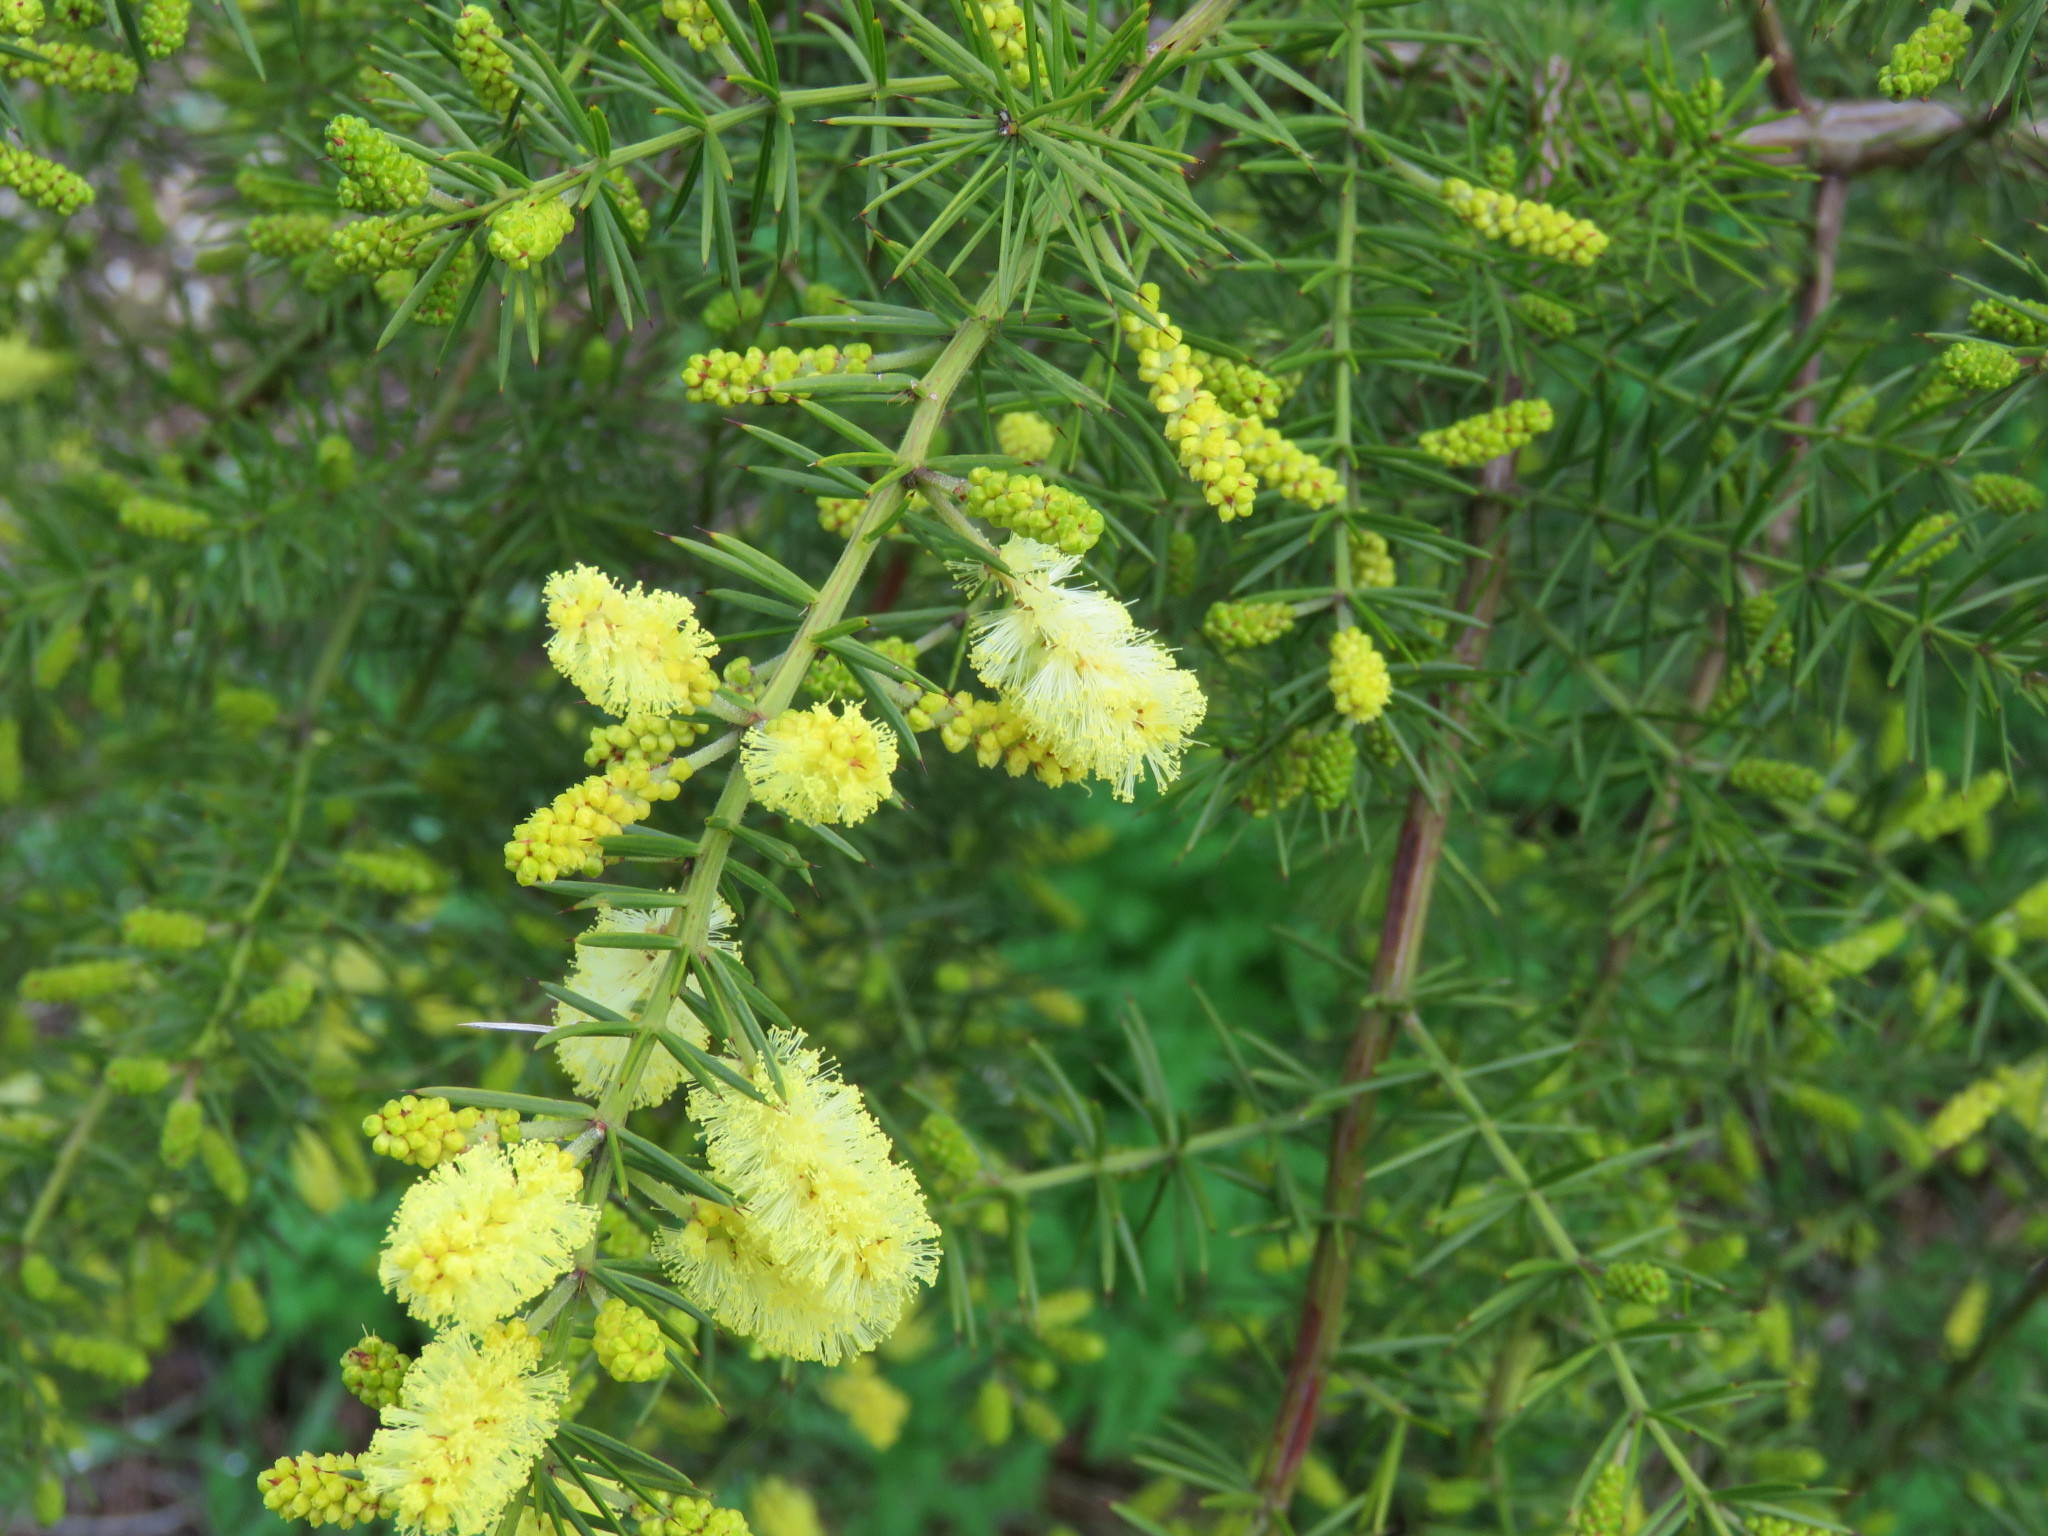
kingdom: Plantae
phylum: Tracheophyta
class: Magnoliopsida
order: Fabales
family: Fabaceae
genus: Acacia
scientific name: Acacia verticillata
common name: Prickly moses
